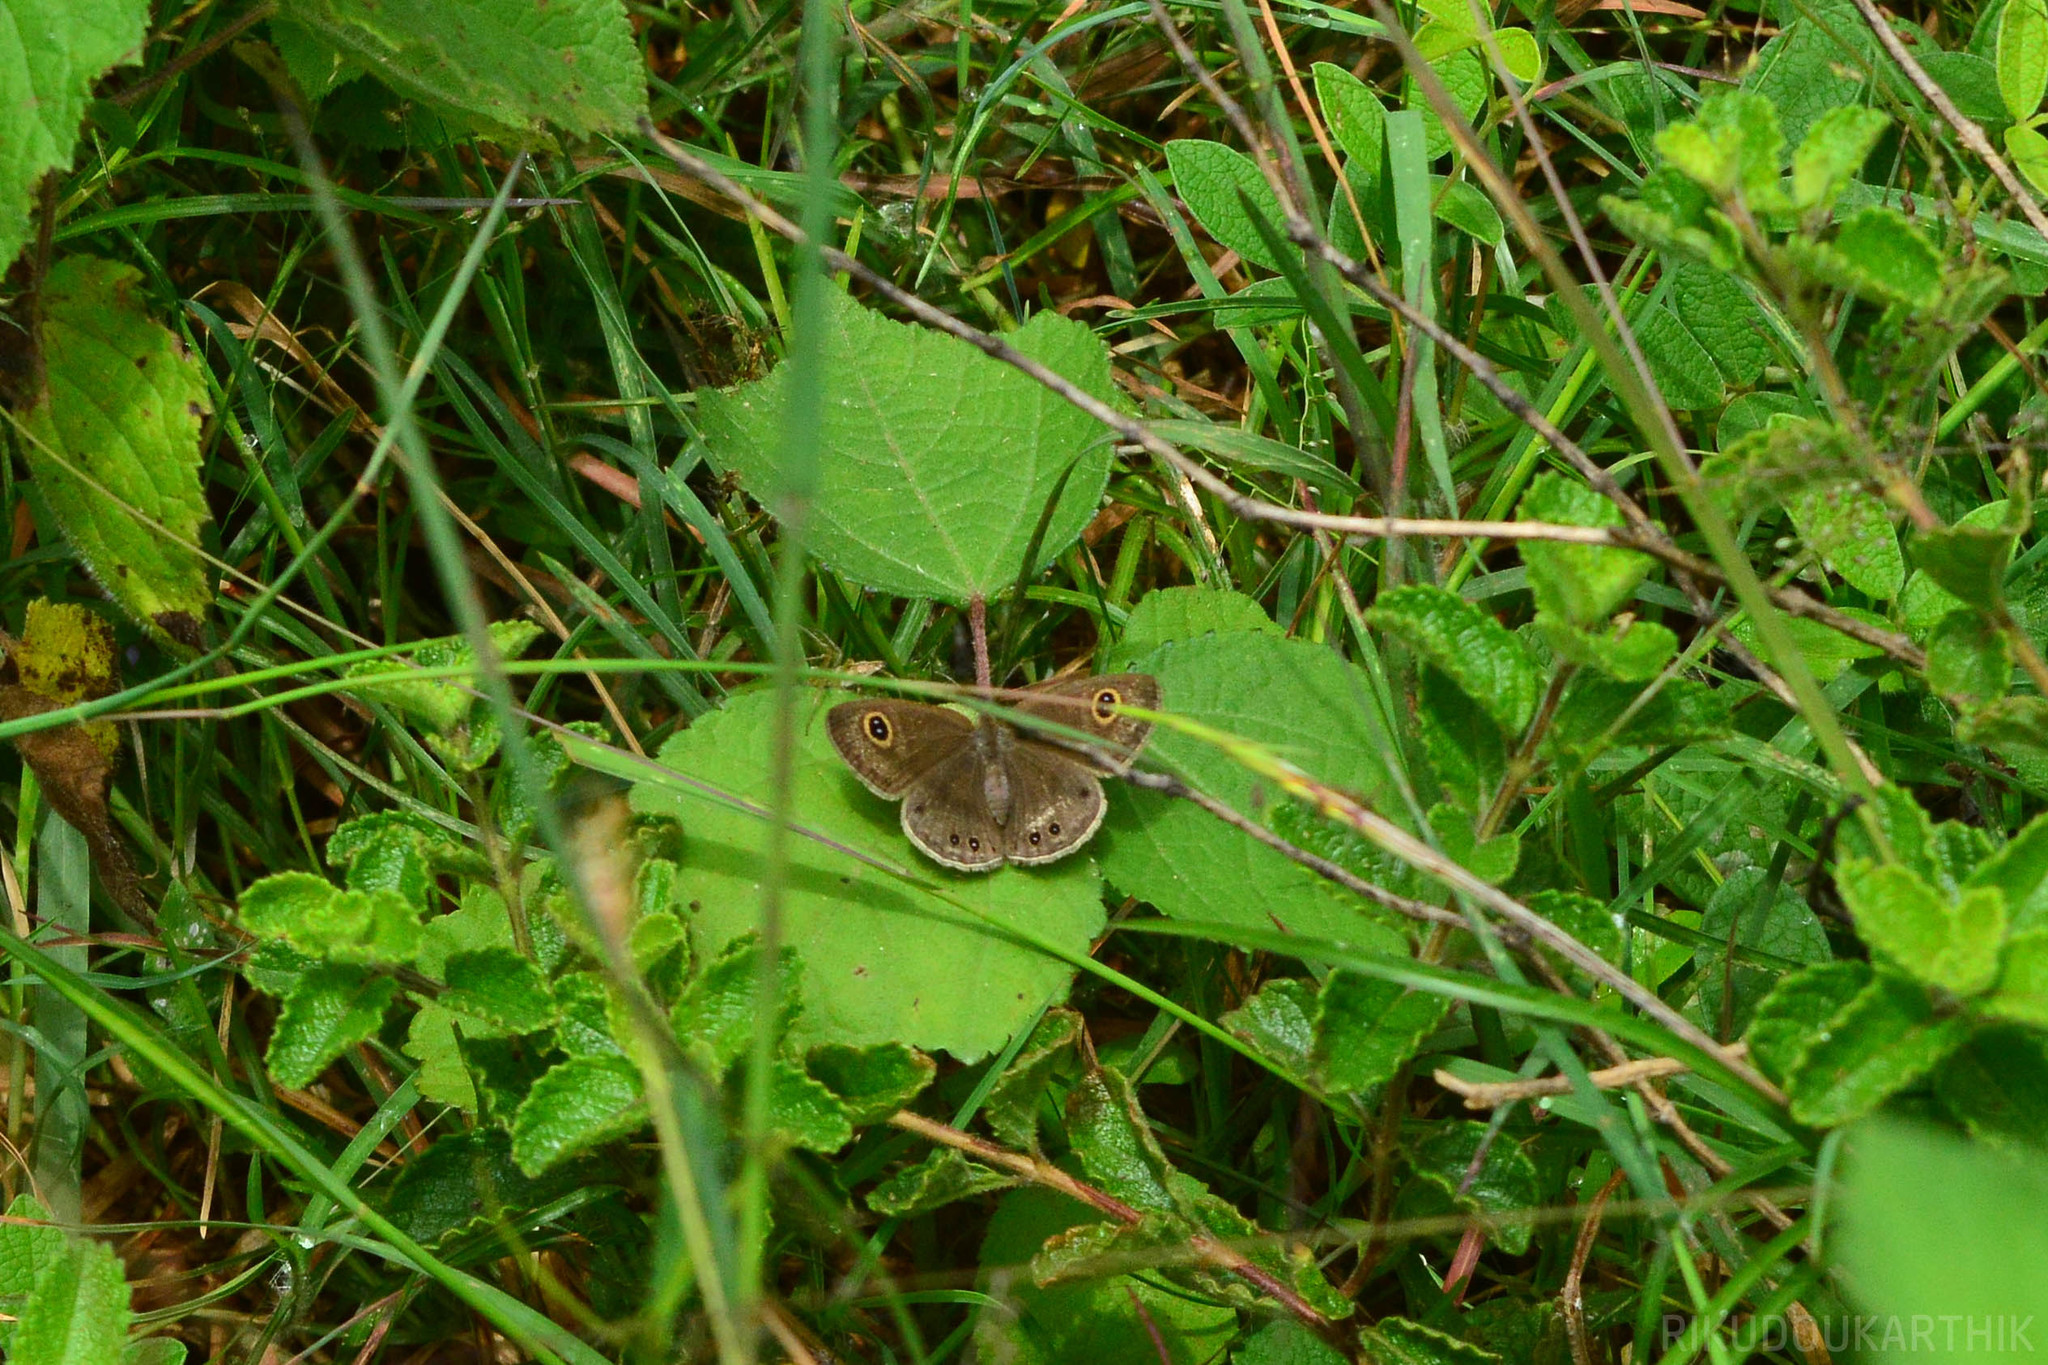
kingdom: Animalia
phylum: Arthropoda
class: Insecta
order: Lepidoptera
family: Nymphalidae
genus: Ypthima
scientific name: Ypthima huebneri
